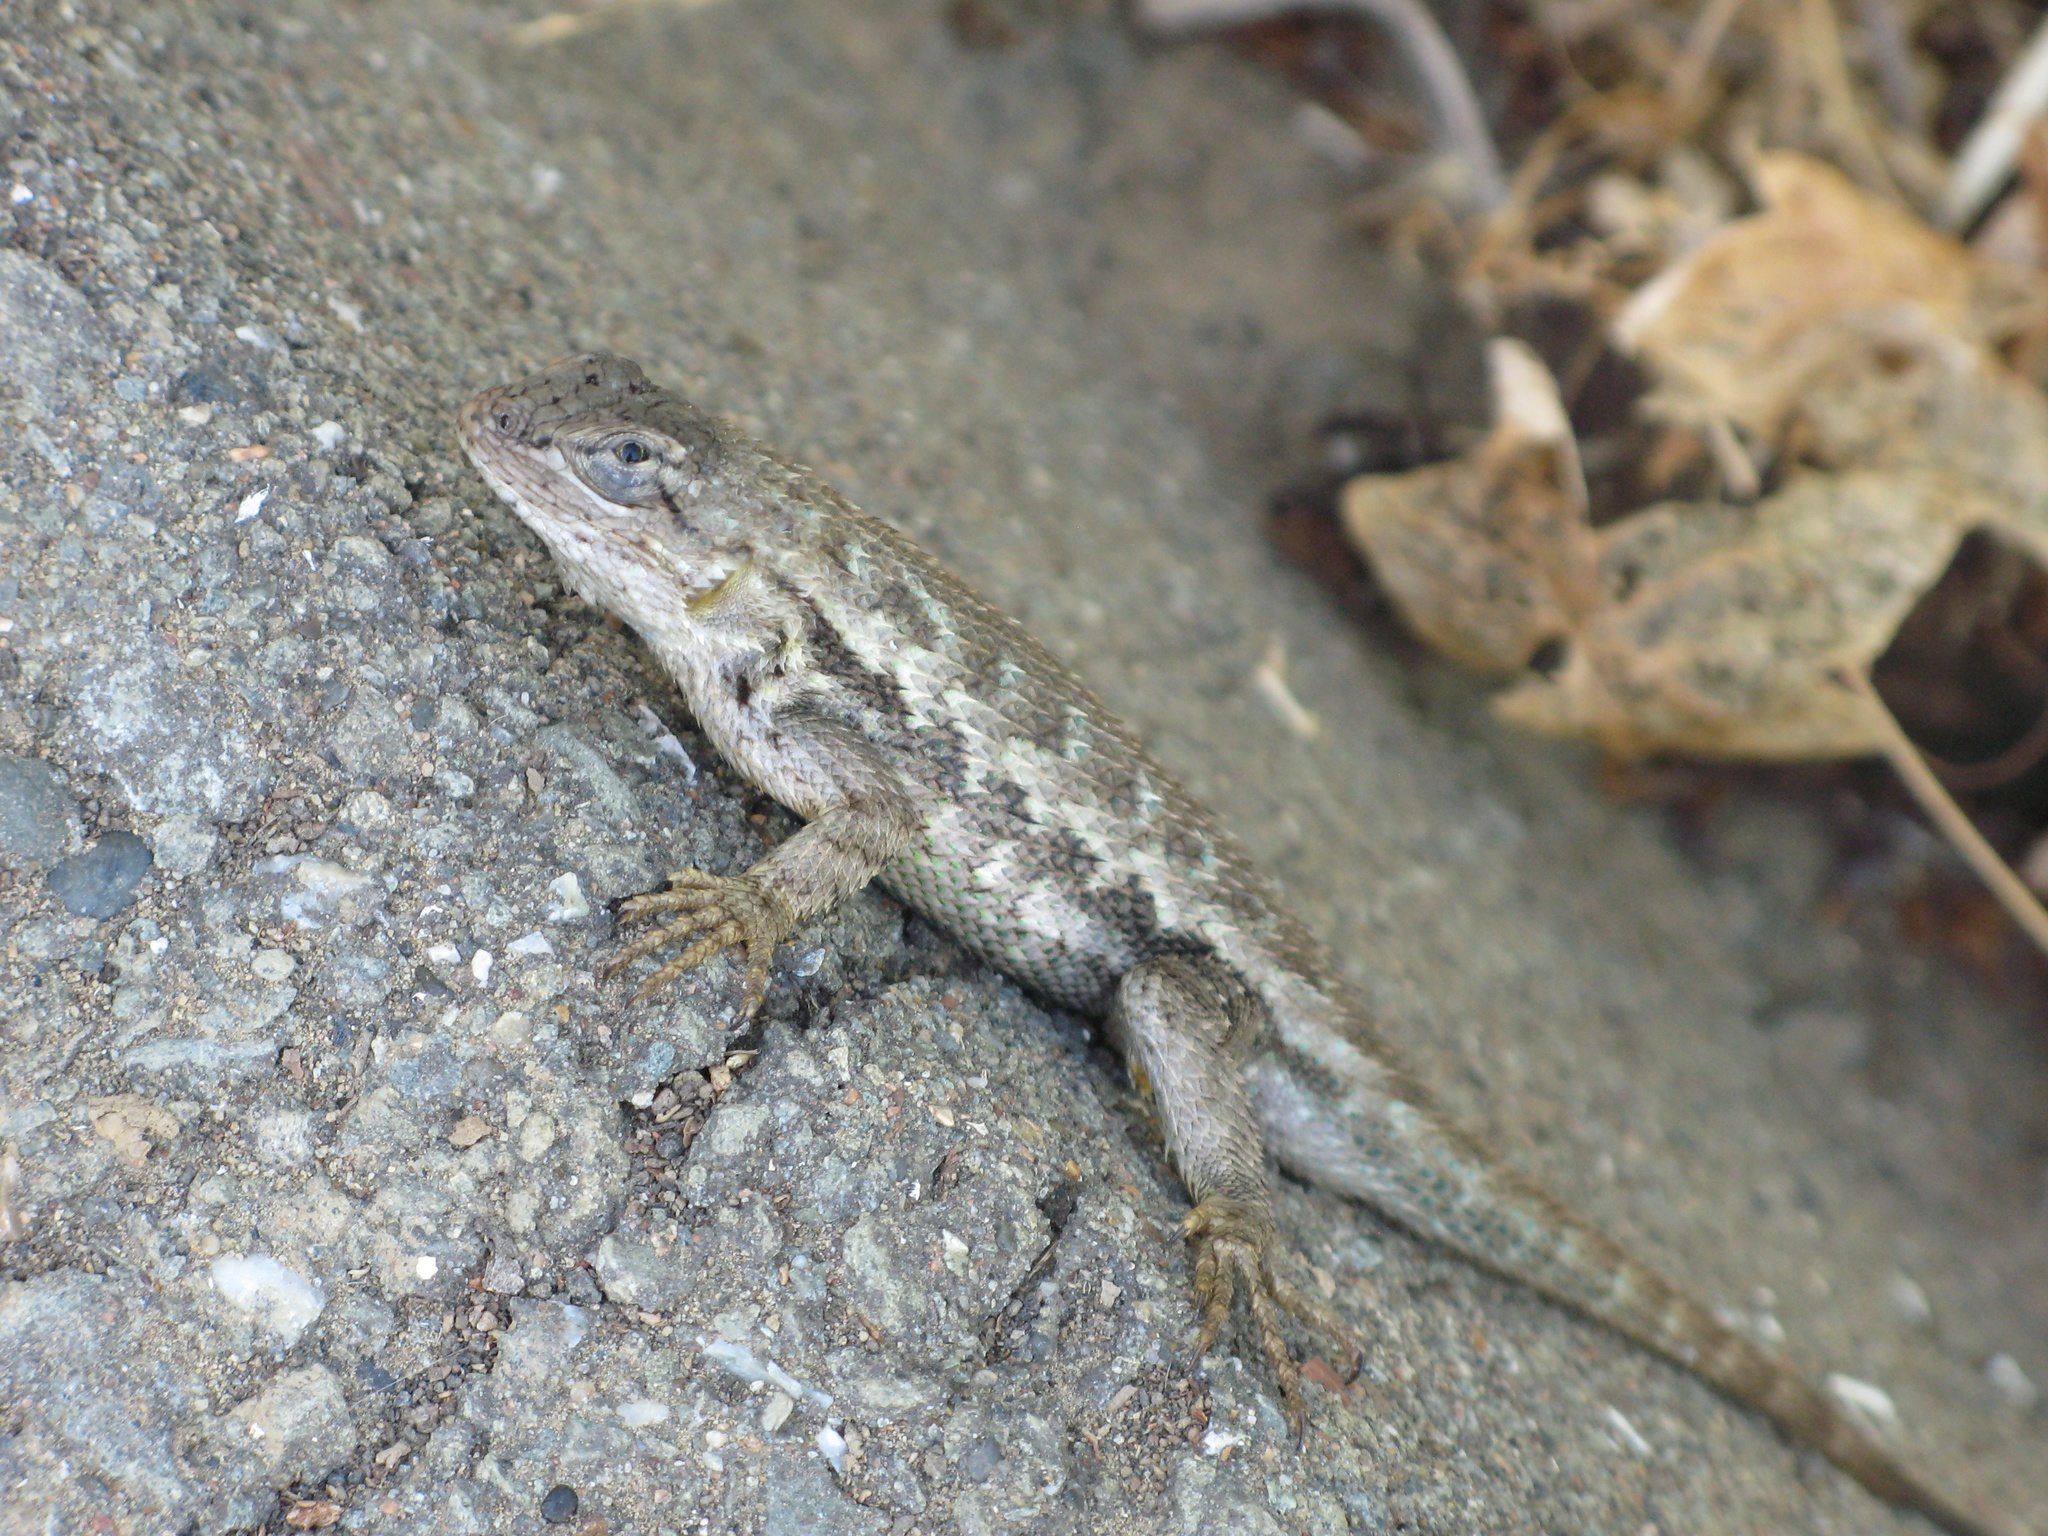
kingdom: Animalia
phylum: Chordata
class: Squamata
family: Phrynosomatidae
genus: Sceloporus
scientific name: Sceloporus occidentalis
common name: Western fence lizard
